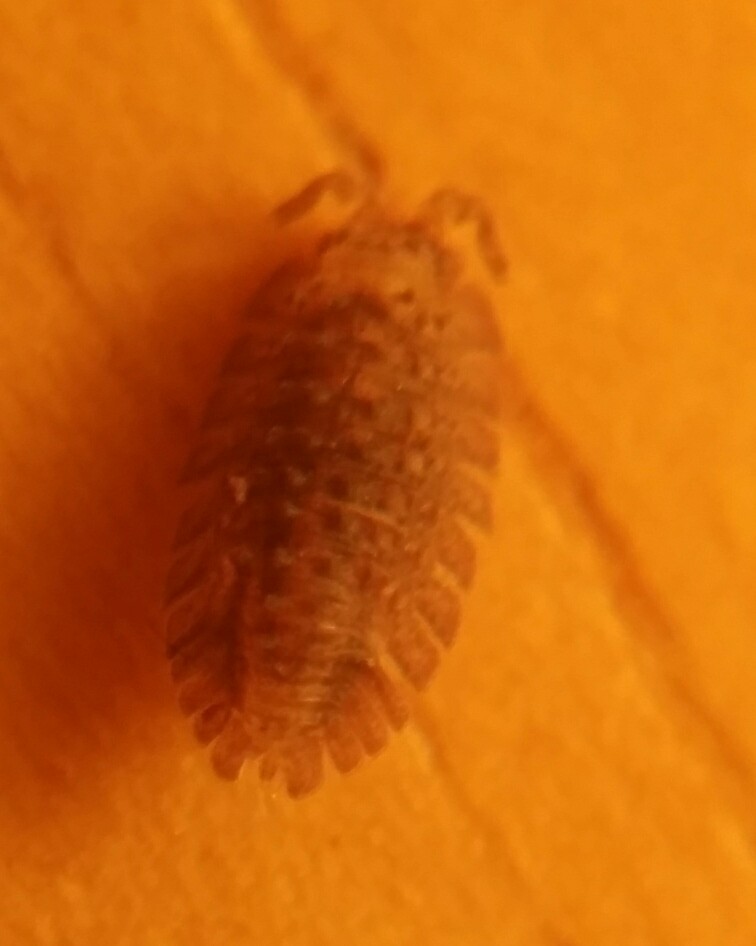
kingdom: Animalia
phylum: Arthropoda
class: Malacostraca
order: Isopoda
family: Detonidae
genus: Armadilloniscus
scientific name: Armadilloniscus coronacapitalis
